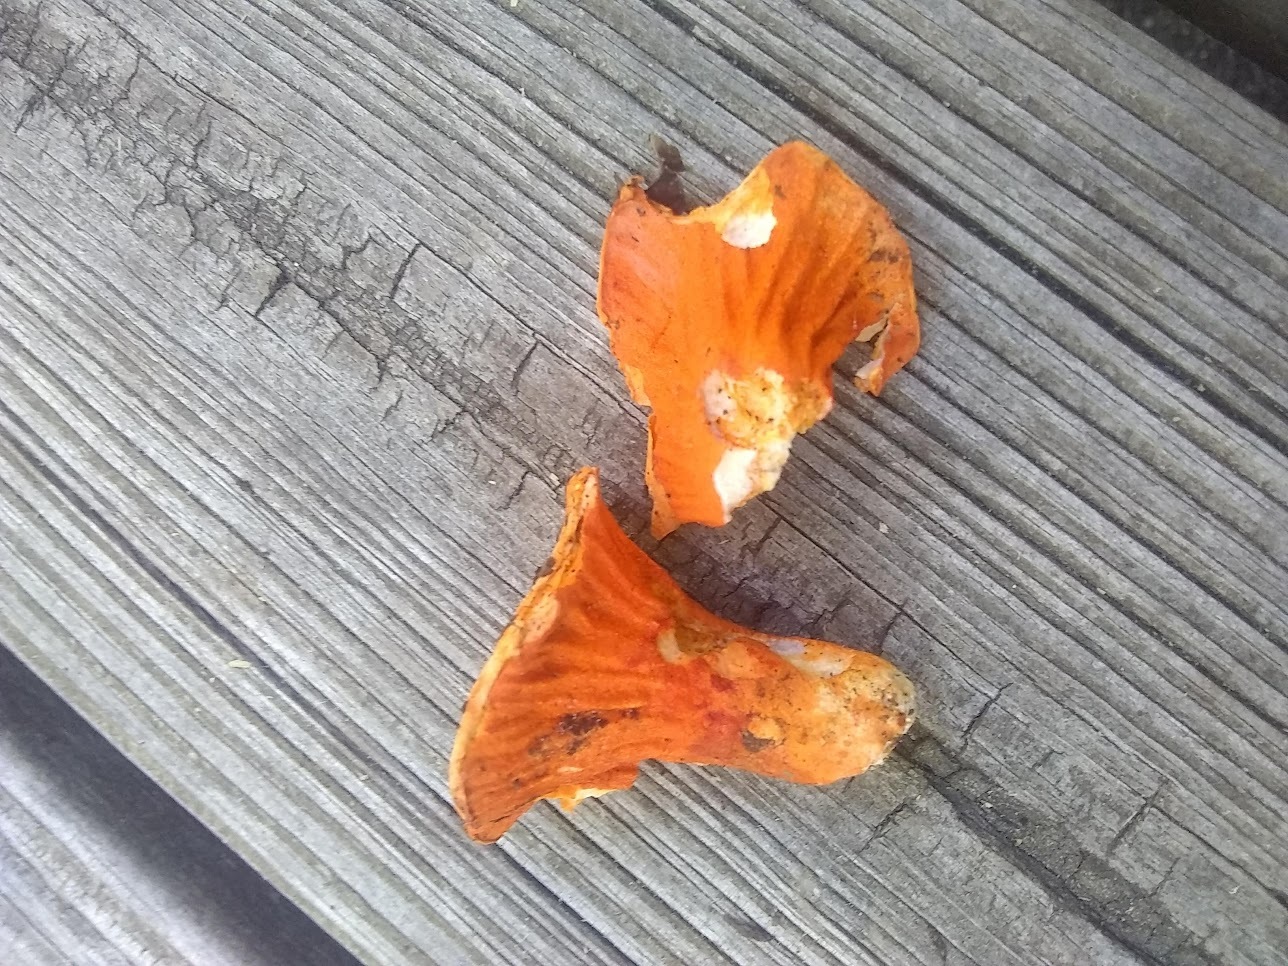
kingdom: Fungi
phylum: Ascomycota
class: Sordariomycetes
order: Hypocreales
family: Hypocreaceae
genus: Hypomyces
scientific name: Hypomyces lactifluorum
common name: Lobster mushroom
